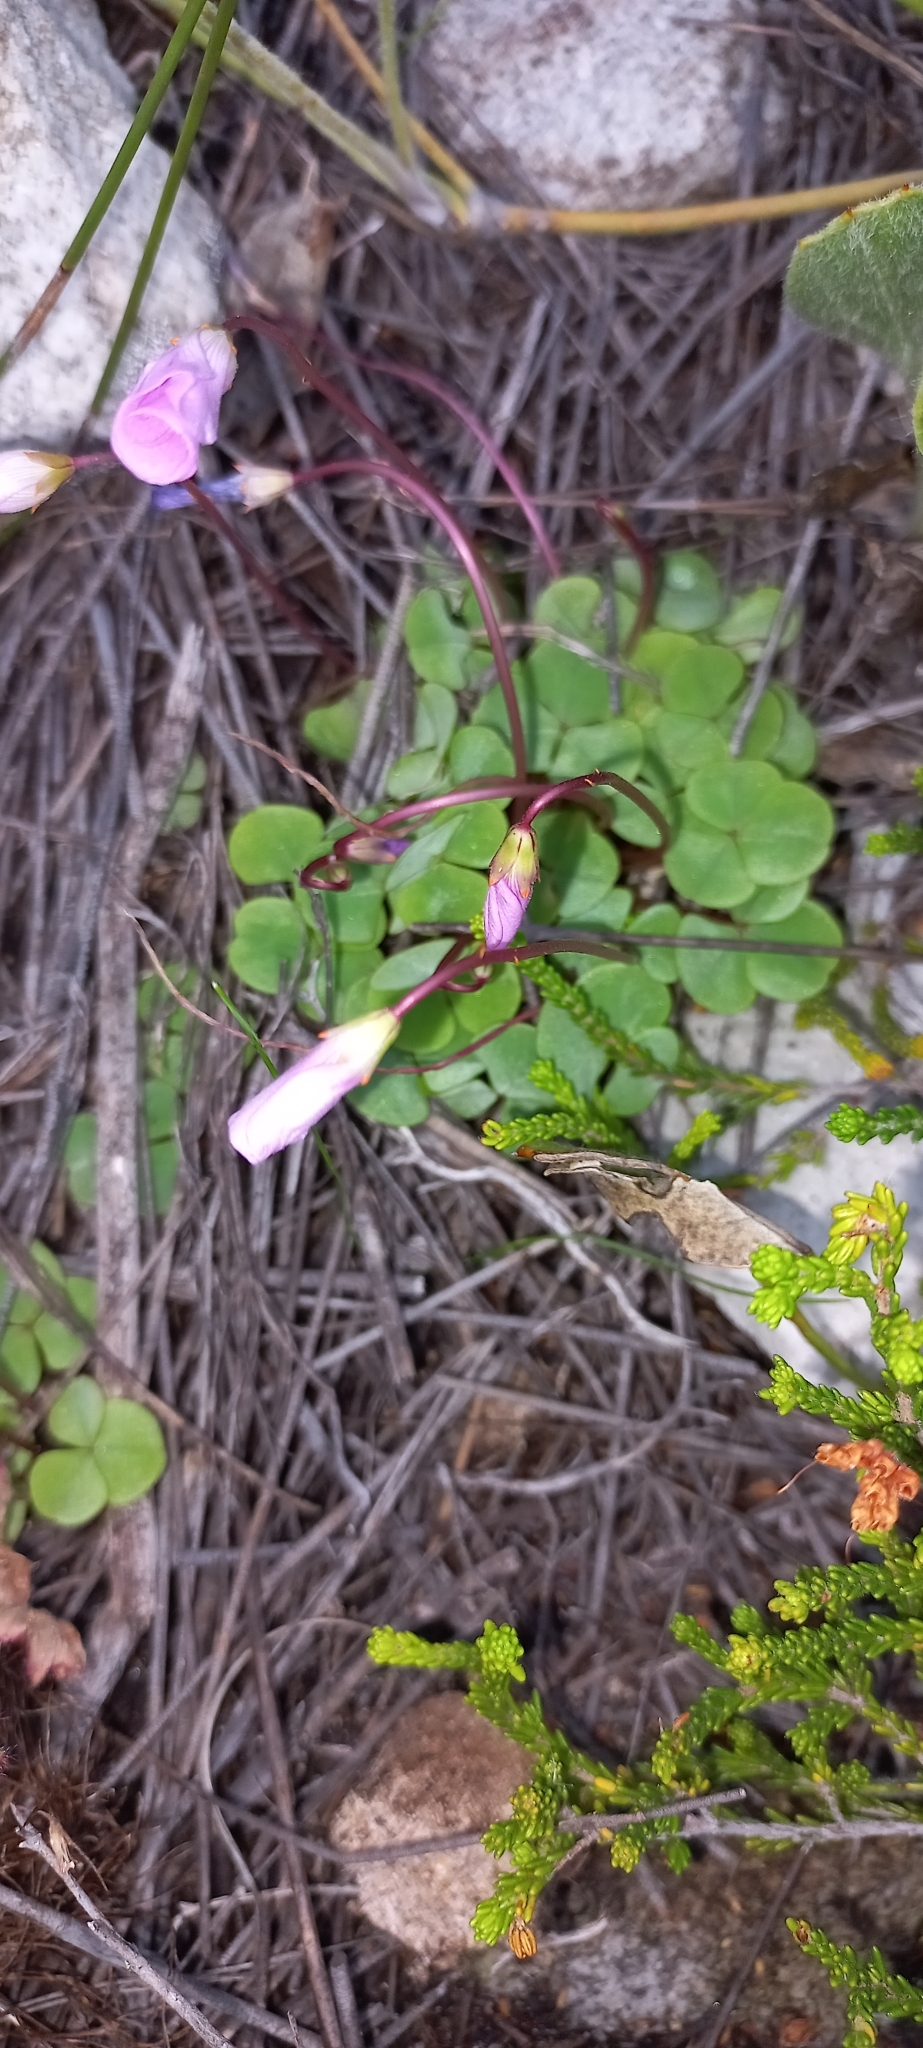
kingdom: Plantae
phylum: Tracheophyta
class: Magnoliopsida
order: Oxalidales
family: Oxalidaceae
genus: Oxalis
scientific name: Oxalis commutata
